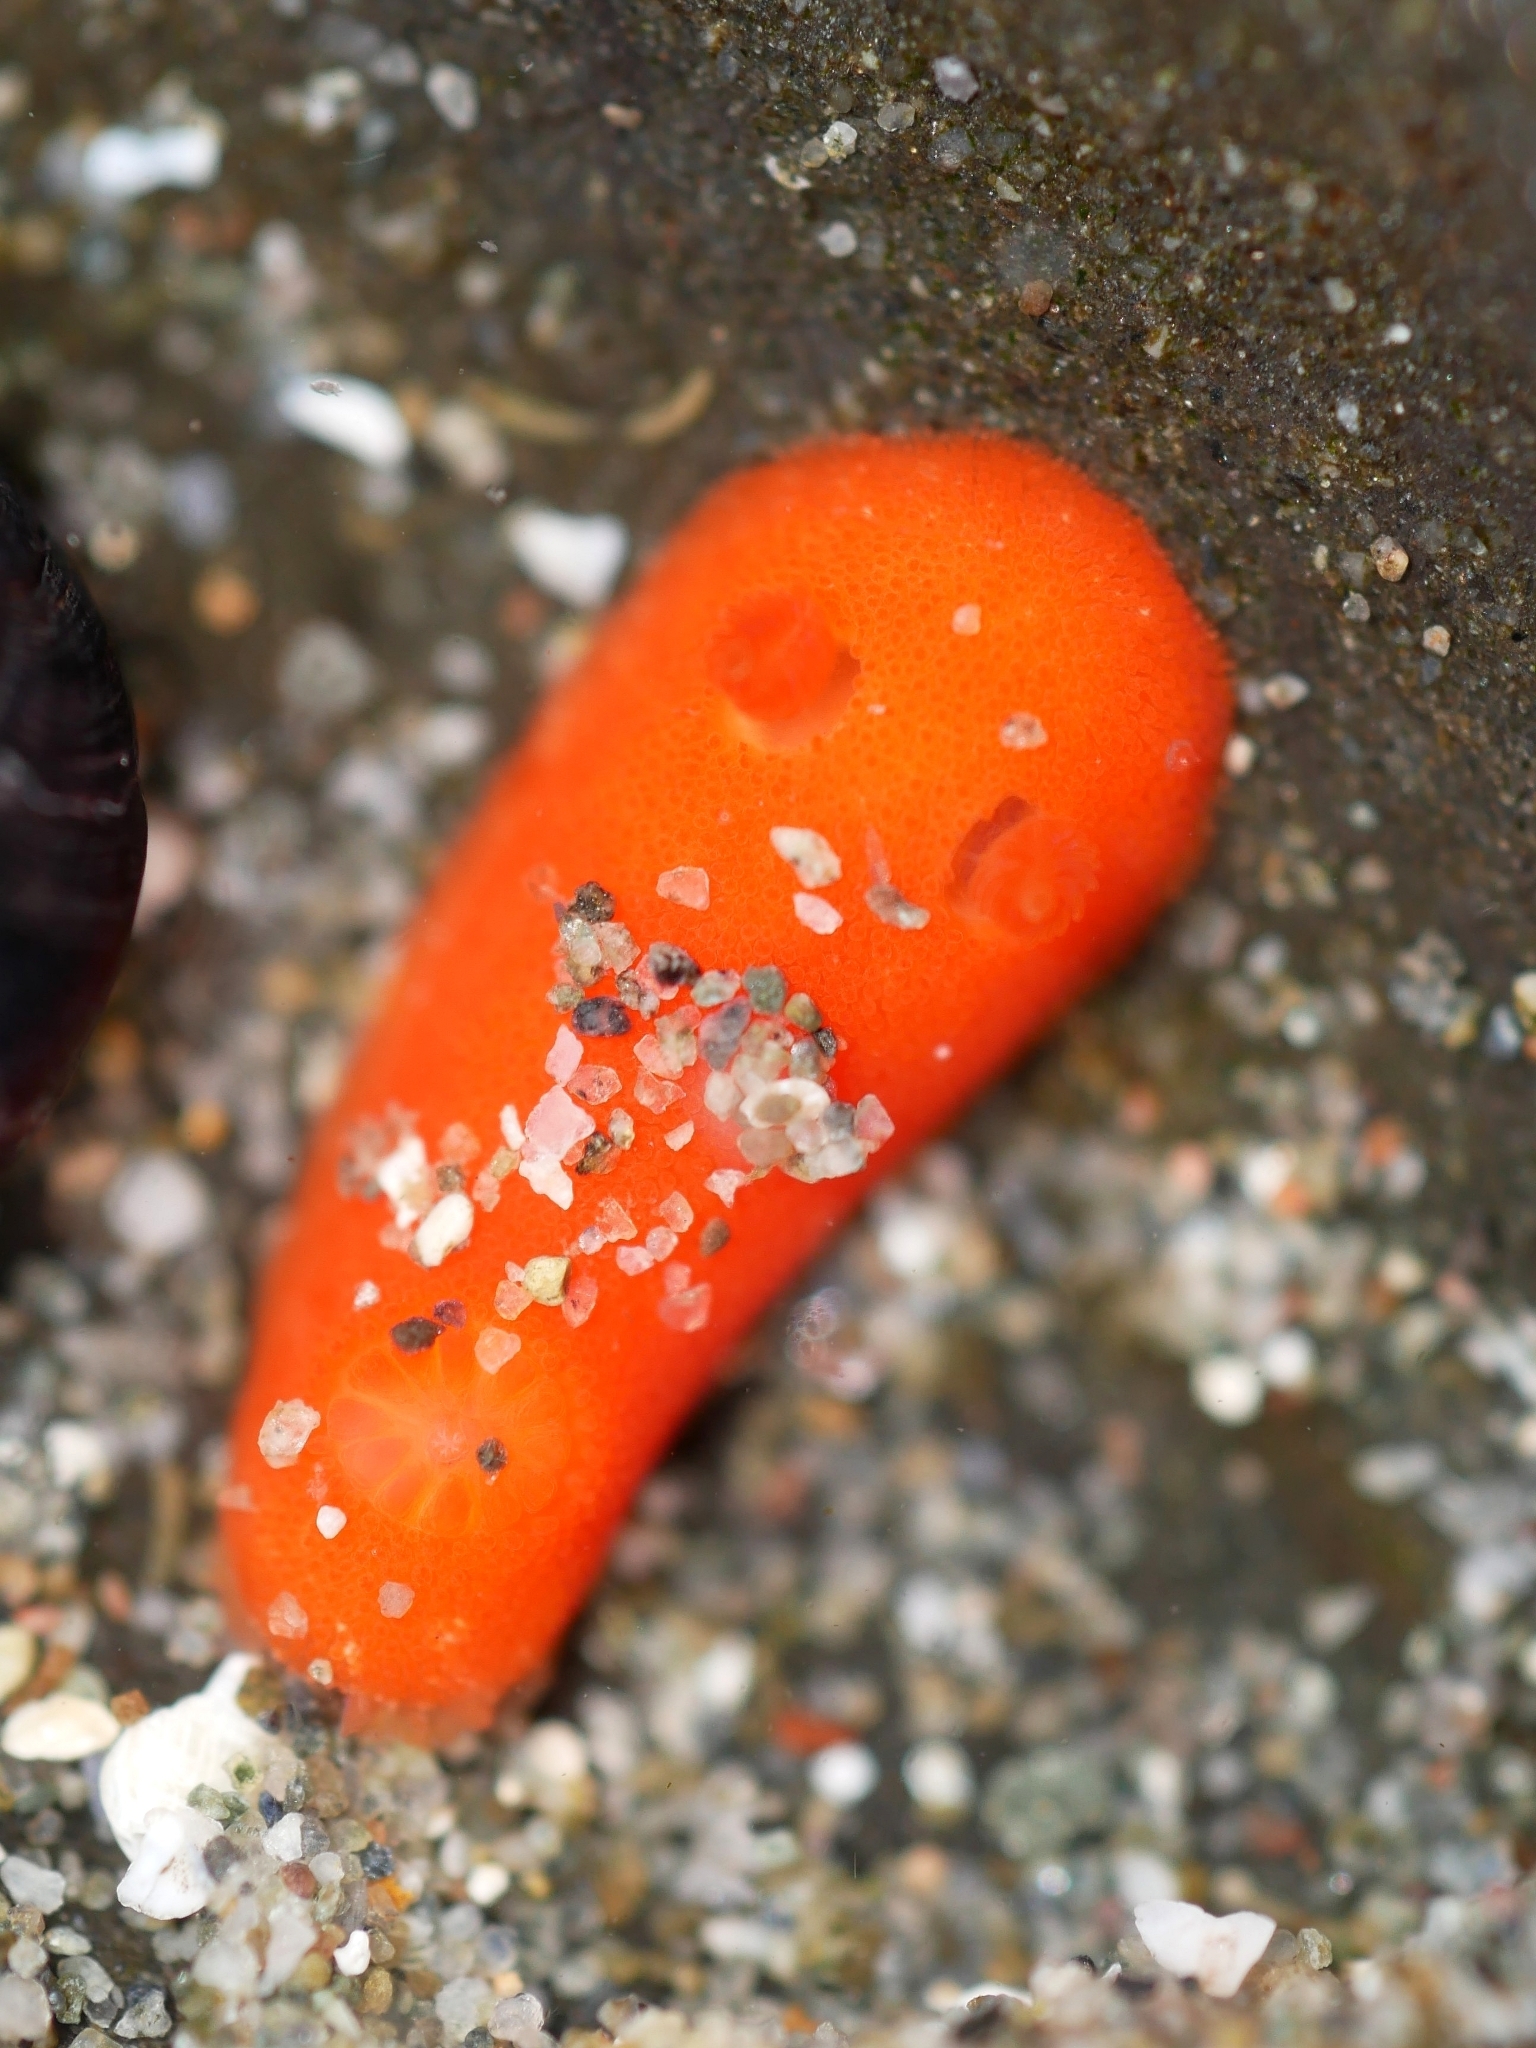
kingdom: Animalia
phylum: Mollusca
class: Gastropoda
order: Nudibranchia
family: Discodorididae
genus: Rostanga
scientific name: Rostanga pulchra
